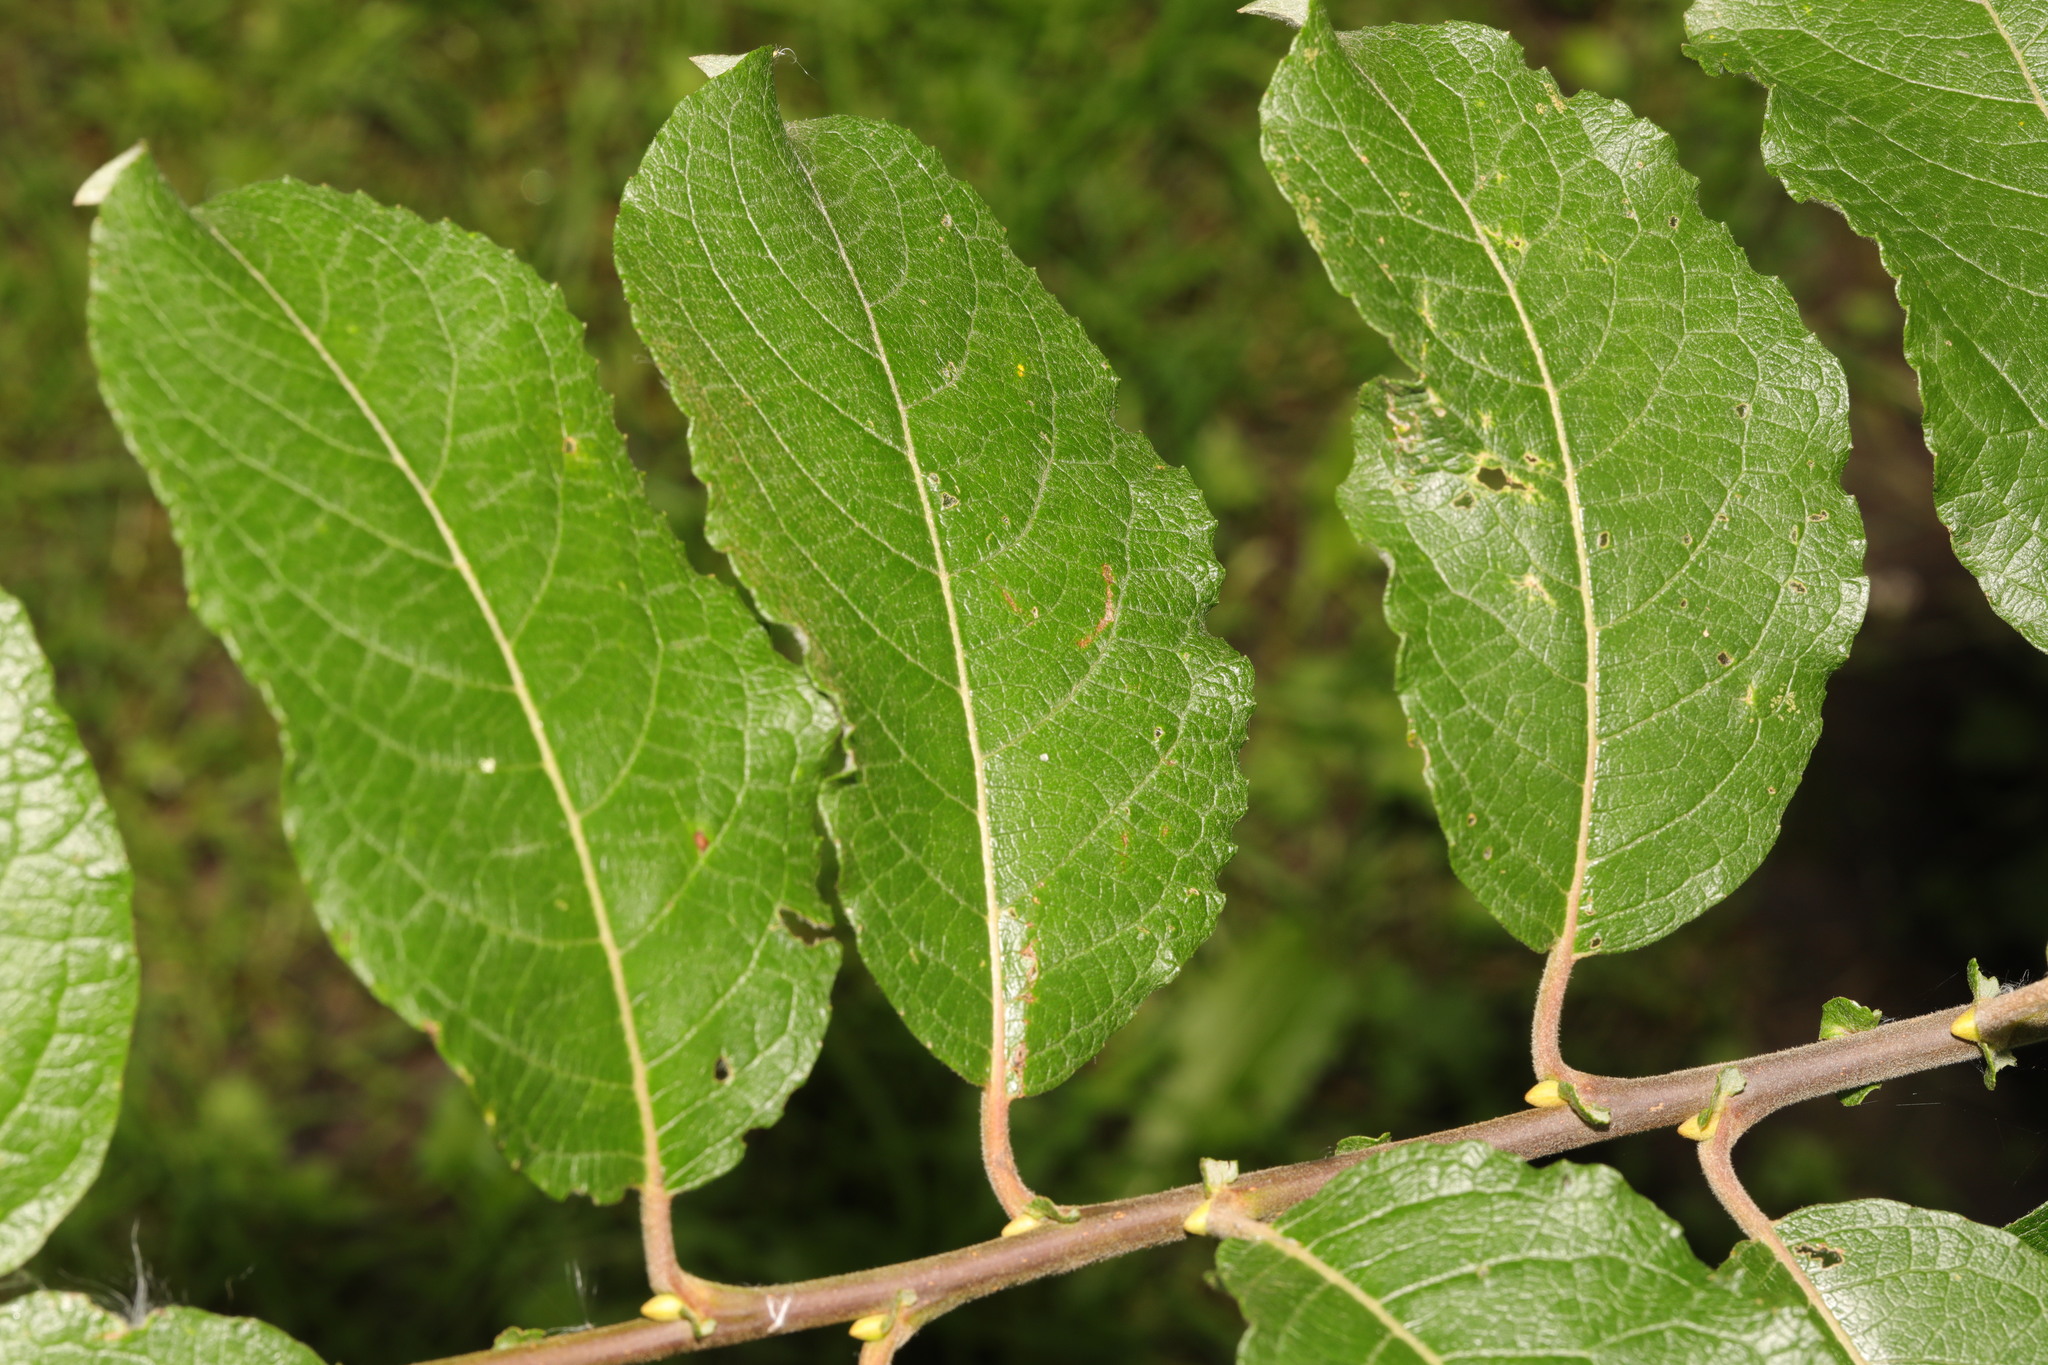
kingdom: Plantae
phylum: Tracheophyta
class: Magnoliopsida
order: Malpighiales
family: Salicaceae
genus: Salix
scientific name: Salix caprea
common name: Goat willow
